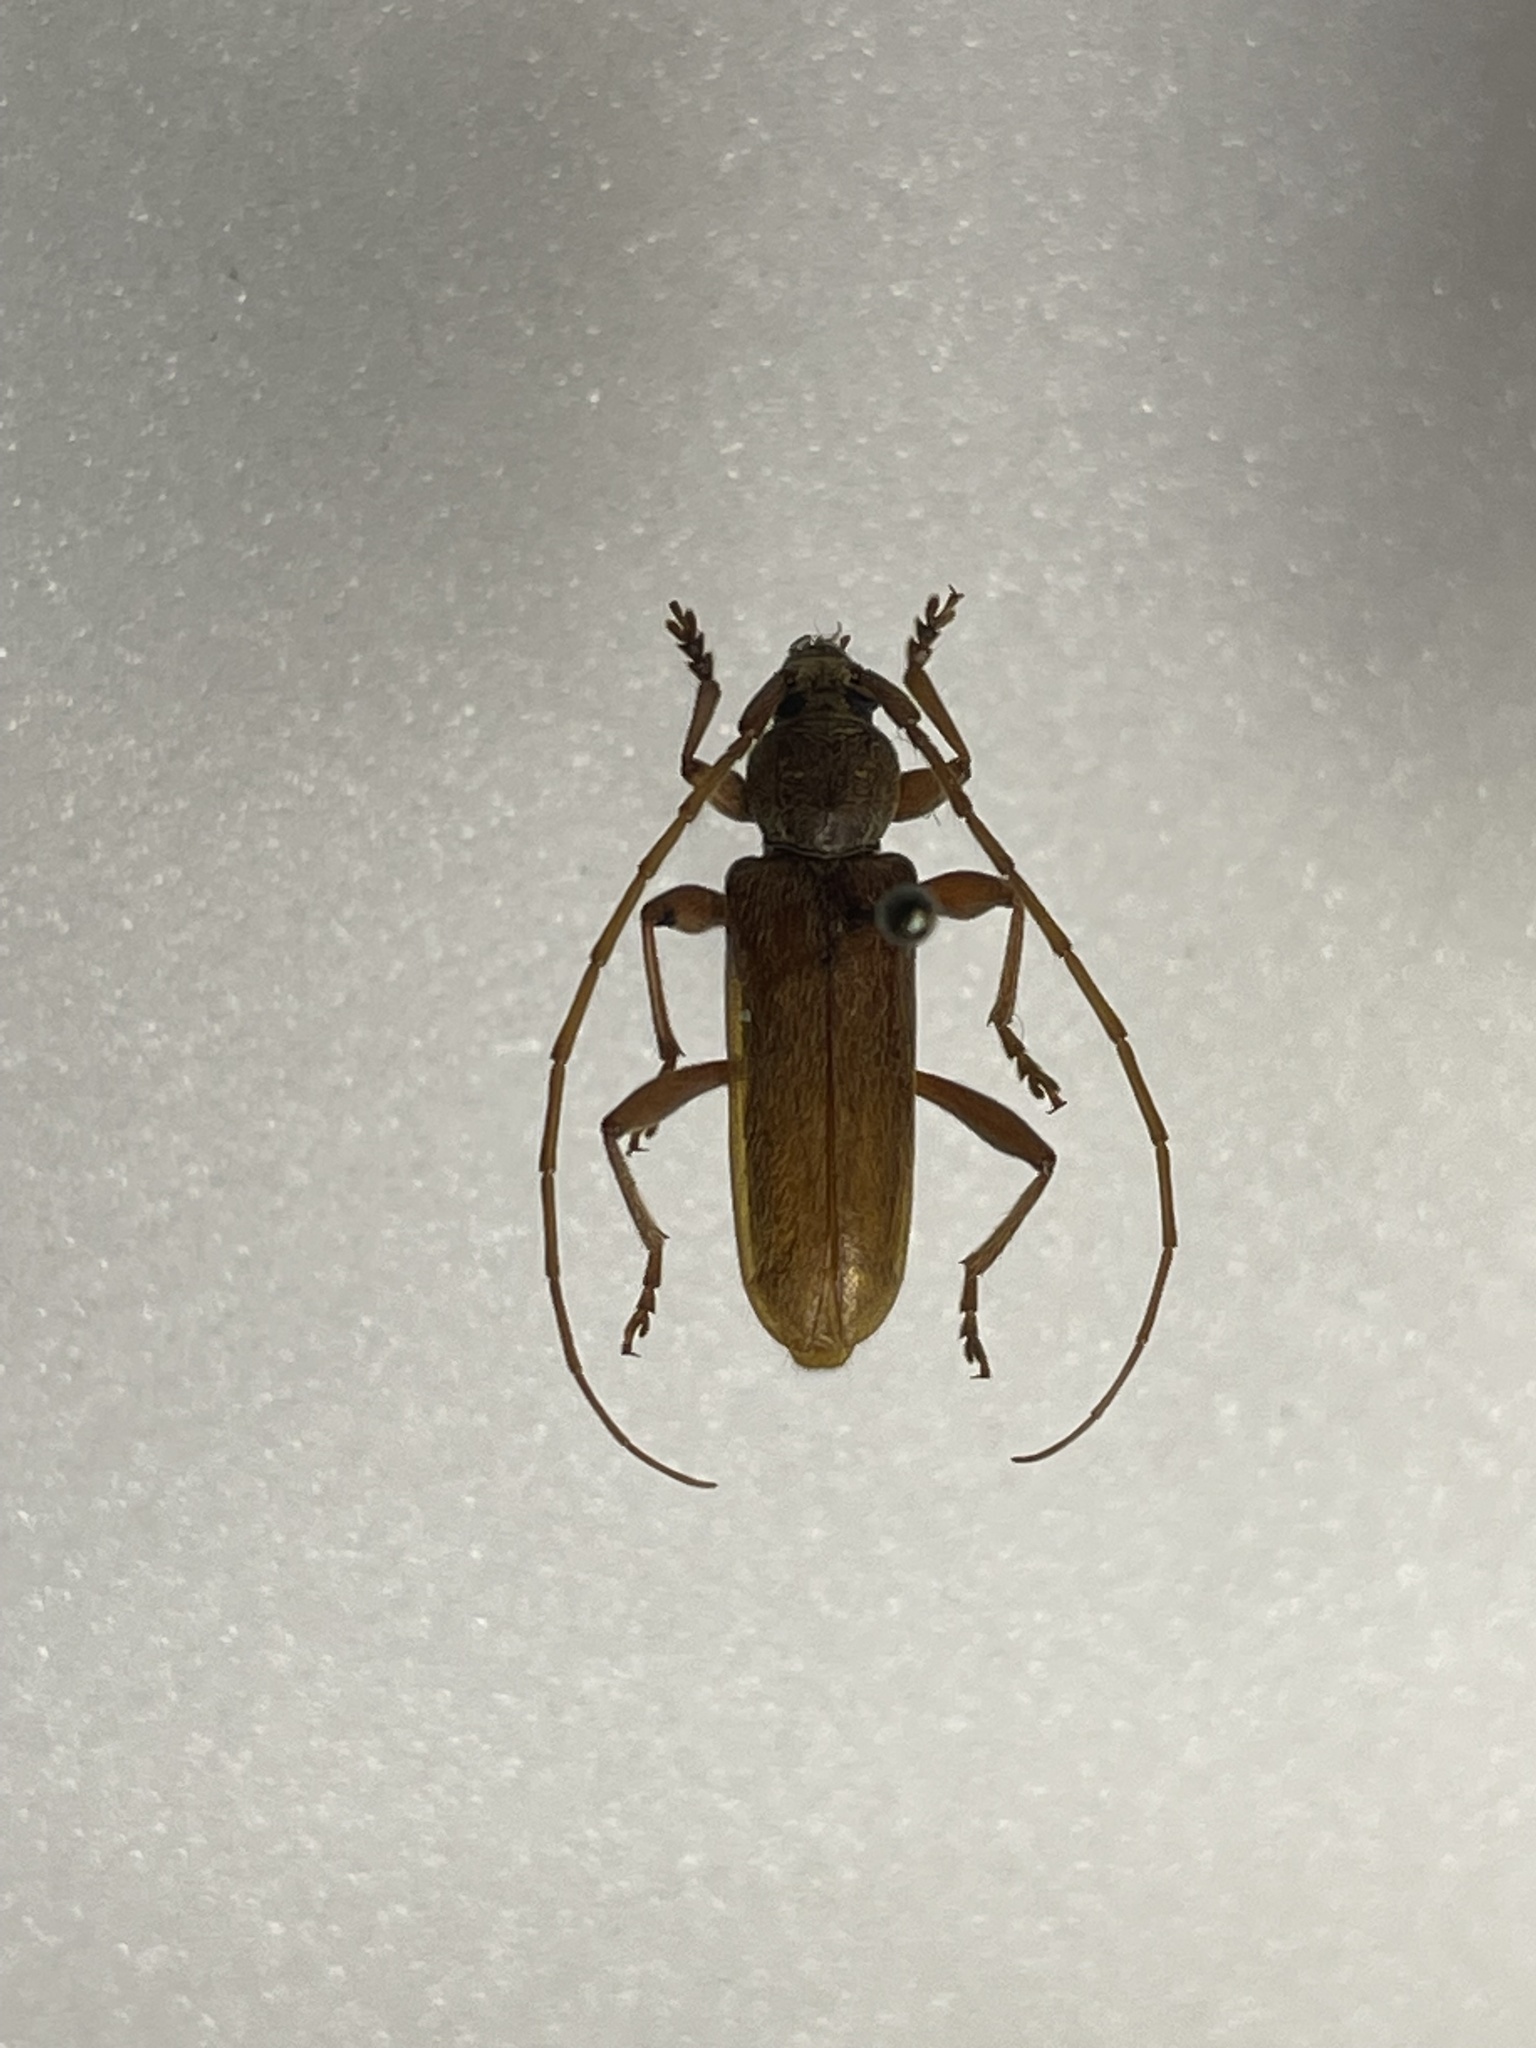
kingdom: Animalia
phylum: Arthropoda
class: Insecta
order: Coleoptera
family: Cerambycidae
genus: Hesperophanes
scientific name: Hesperophanes pubescens
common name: Longhorned wood-boring beetle
